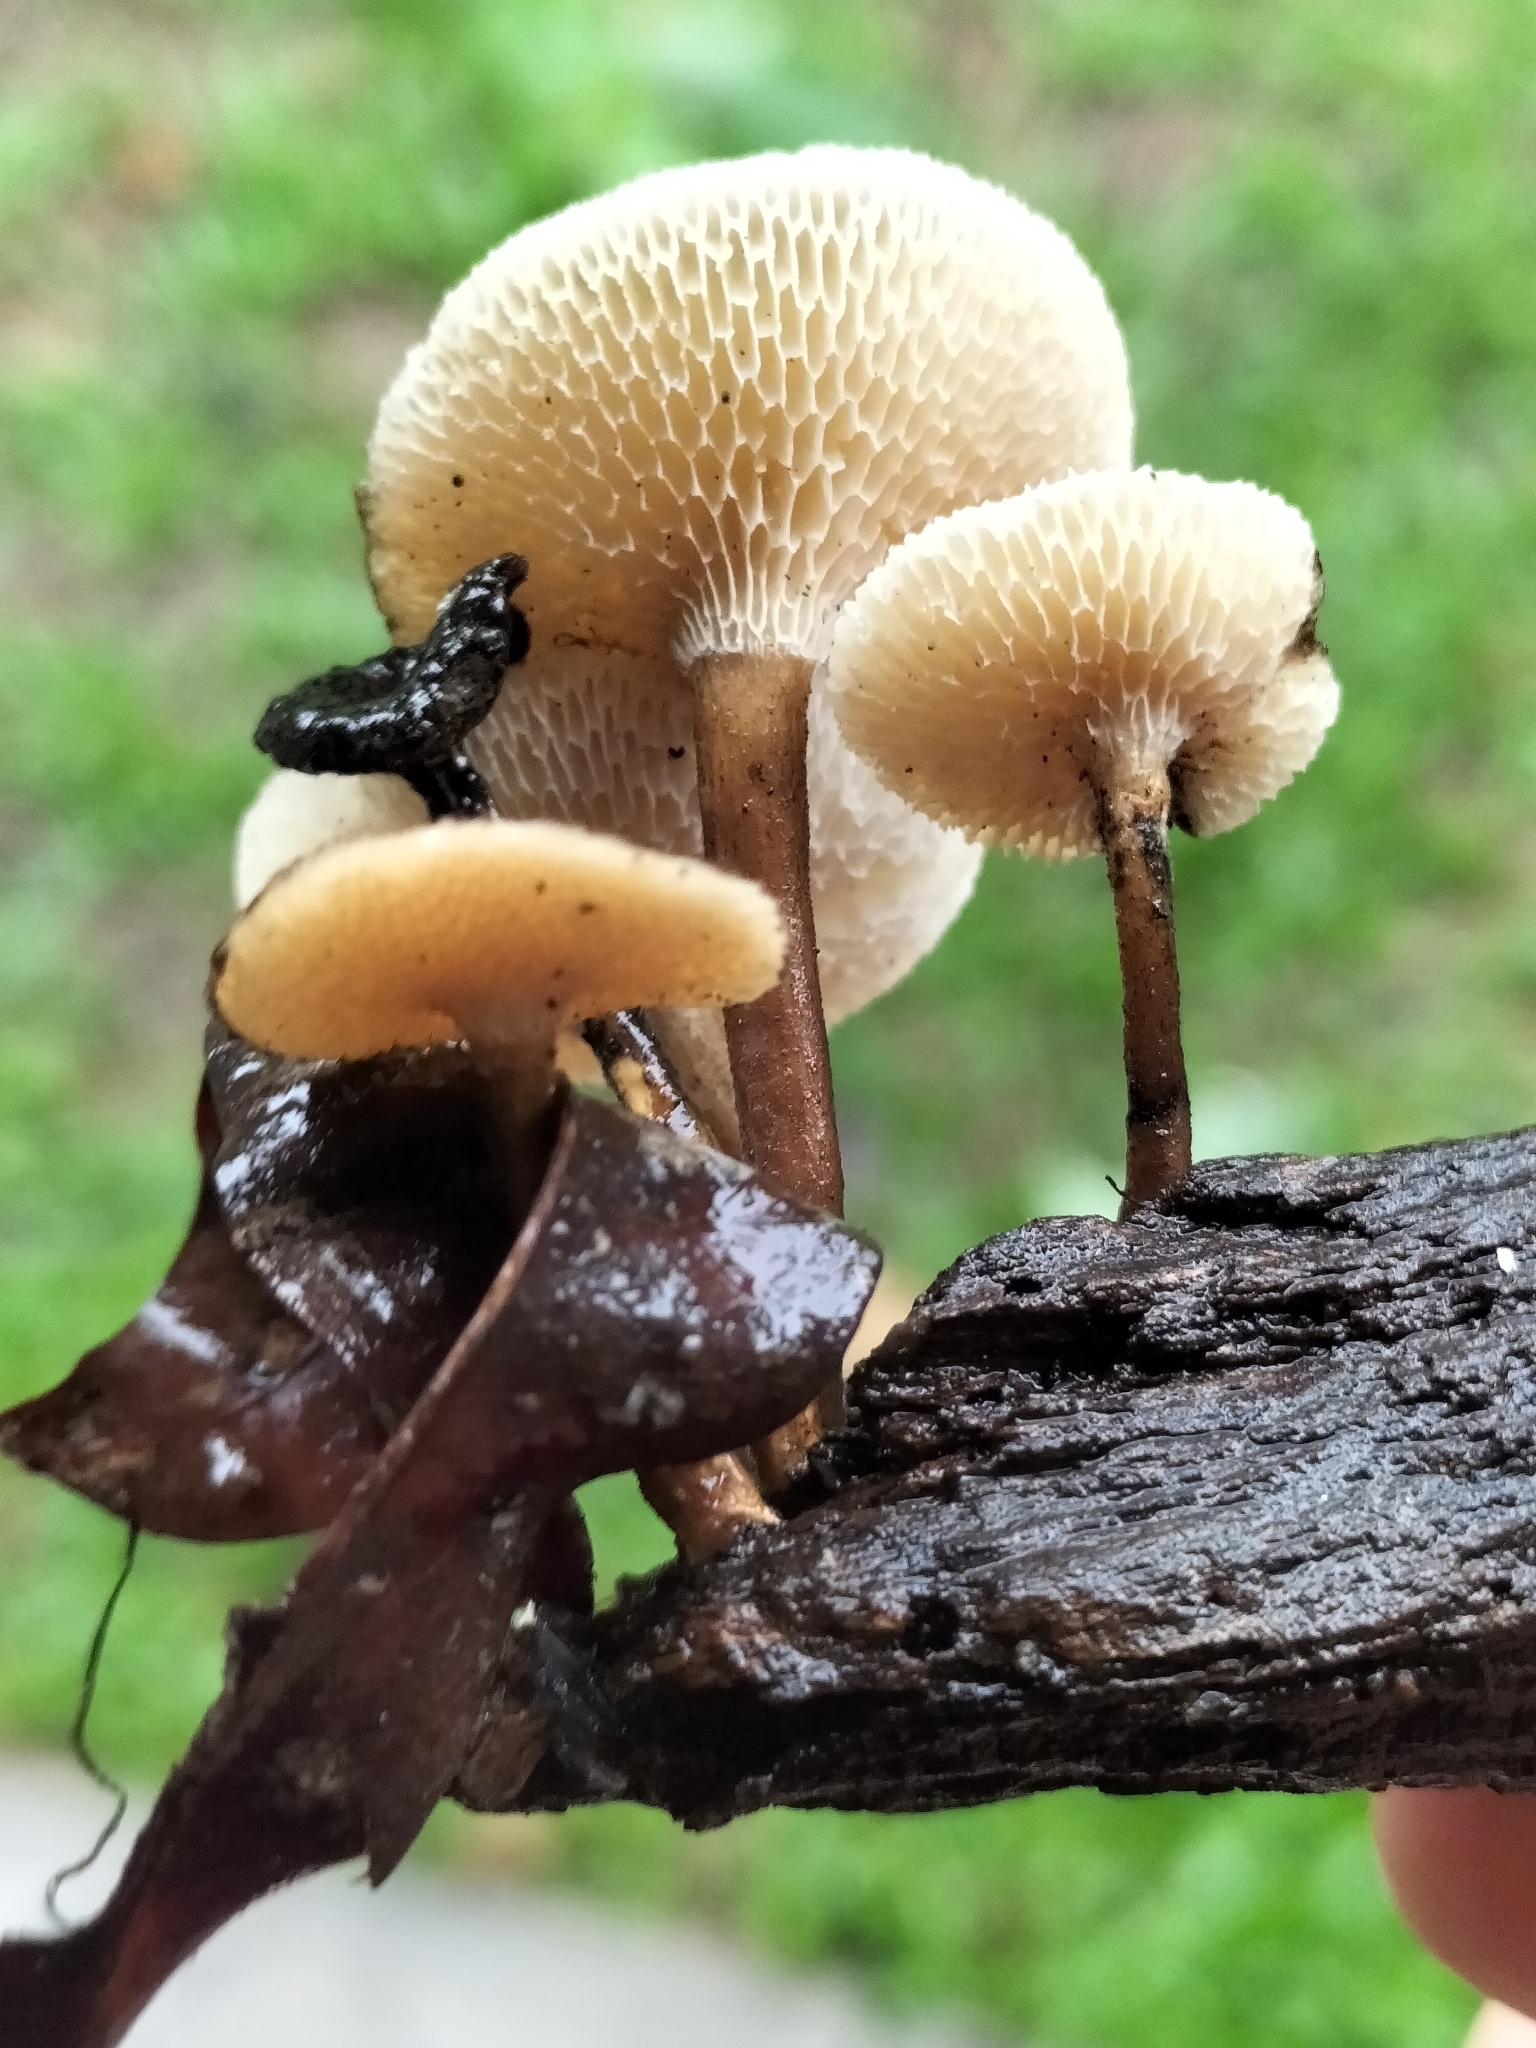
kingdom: Fungi
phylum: Basidiomycota
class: Agaricomycetes
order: Polyporales
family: Polyporaceae
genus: Lentinus
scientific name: Lentinus arcularius
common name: Spring polypore
